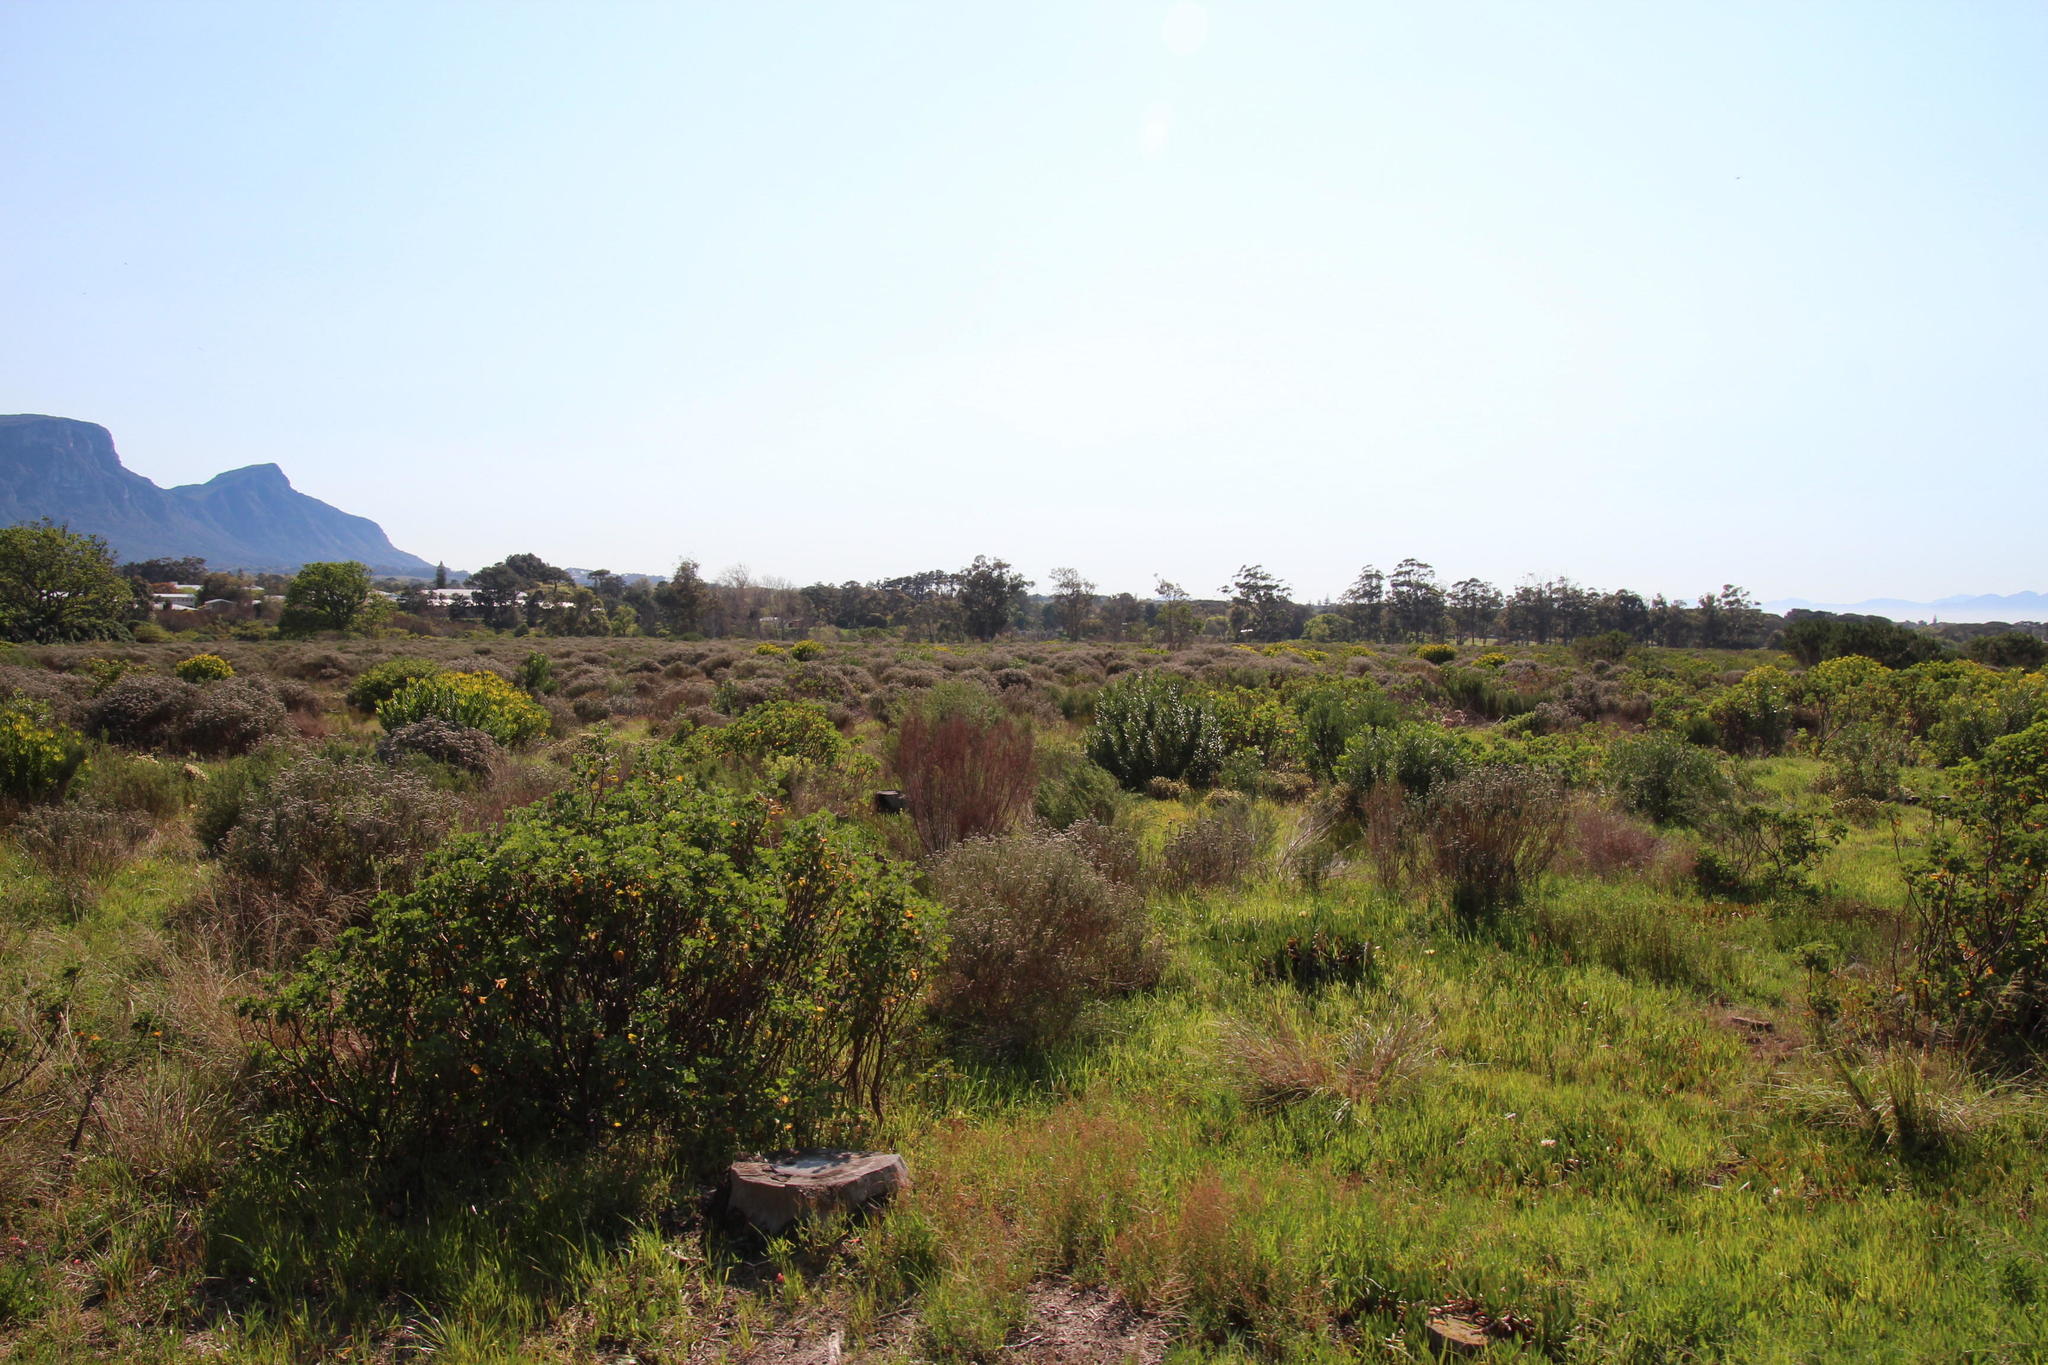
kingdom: Plantae
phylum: Tracheophyta
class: Liliopsida
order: Poales
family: Restionaceae
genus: Restio
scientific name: Restio bifurcus
